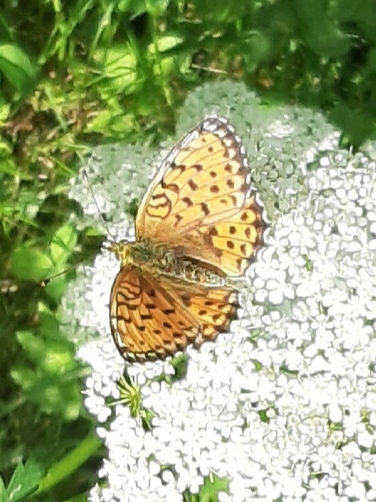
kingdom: Animalia
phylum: Arthropoda
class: Insecta
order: Lepidoptera
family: Nymphalidae
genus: Brenthis
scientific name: Brenthis ino
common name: Lesser marbled fritillary
